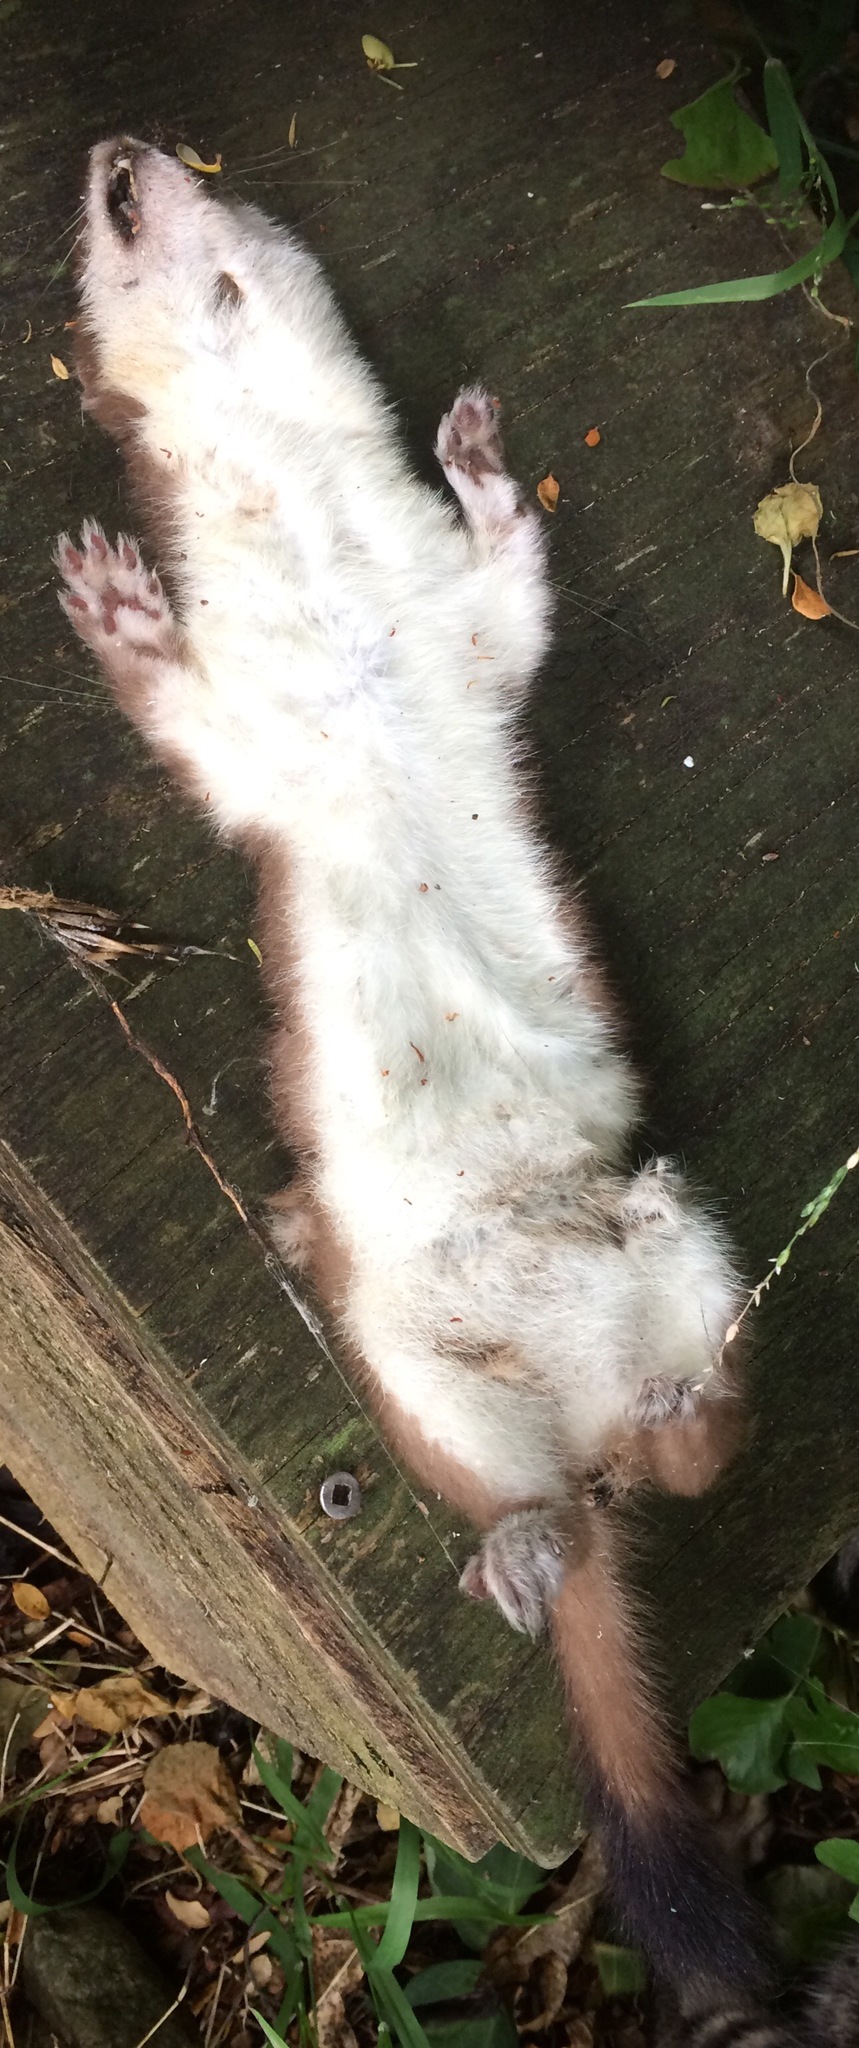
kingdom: Animalia
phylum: Chordata
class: Mammalia
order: Carnivora
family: Mustelidae
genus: Mustela
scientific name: Mustela erminea
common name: Stoat
